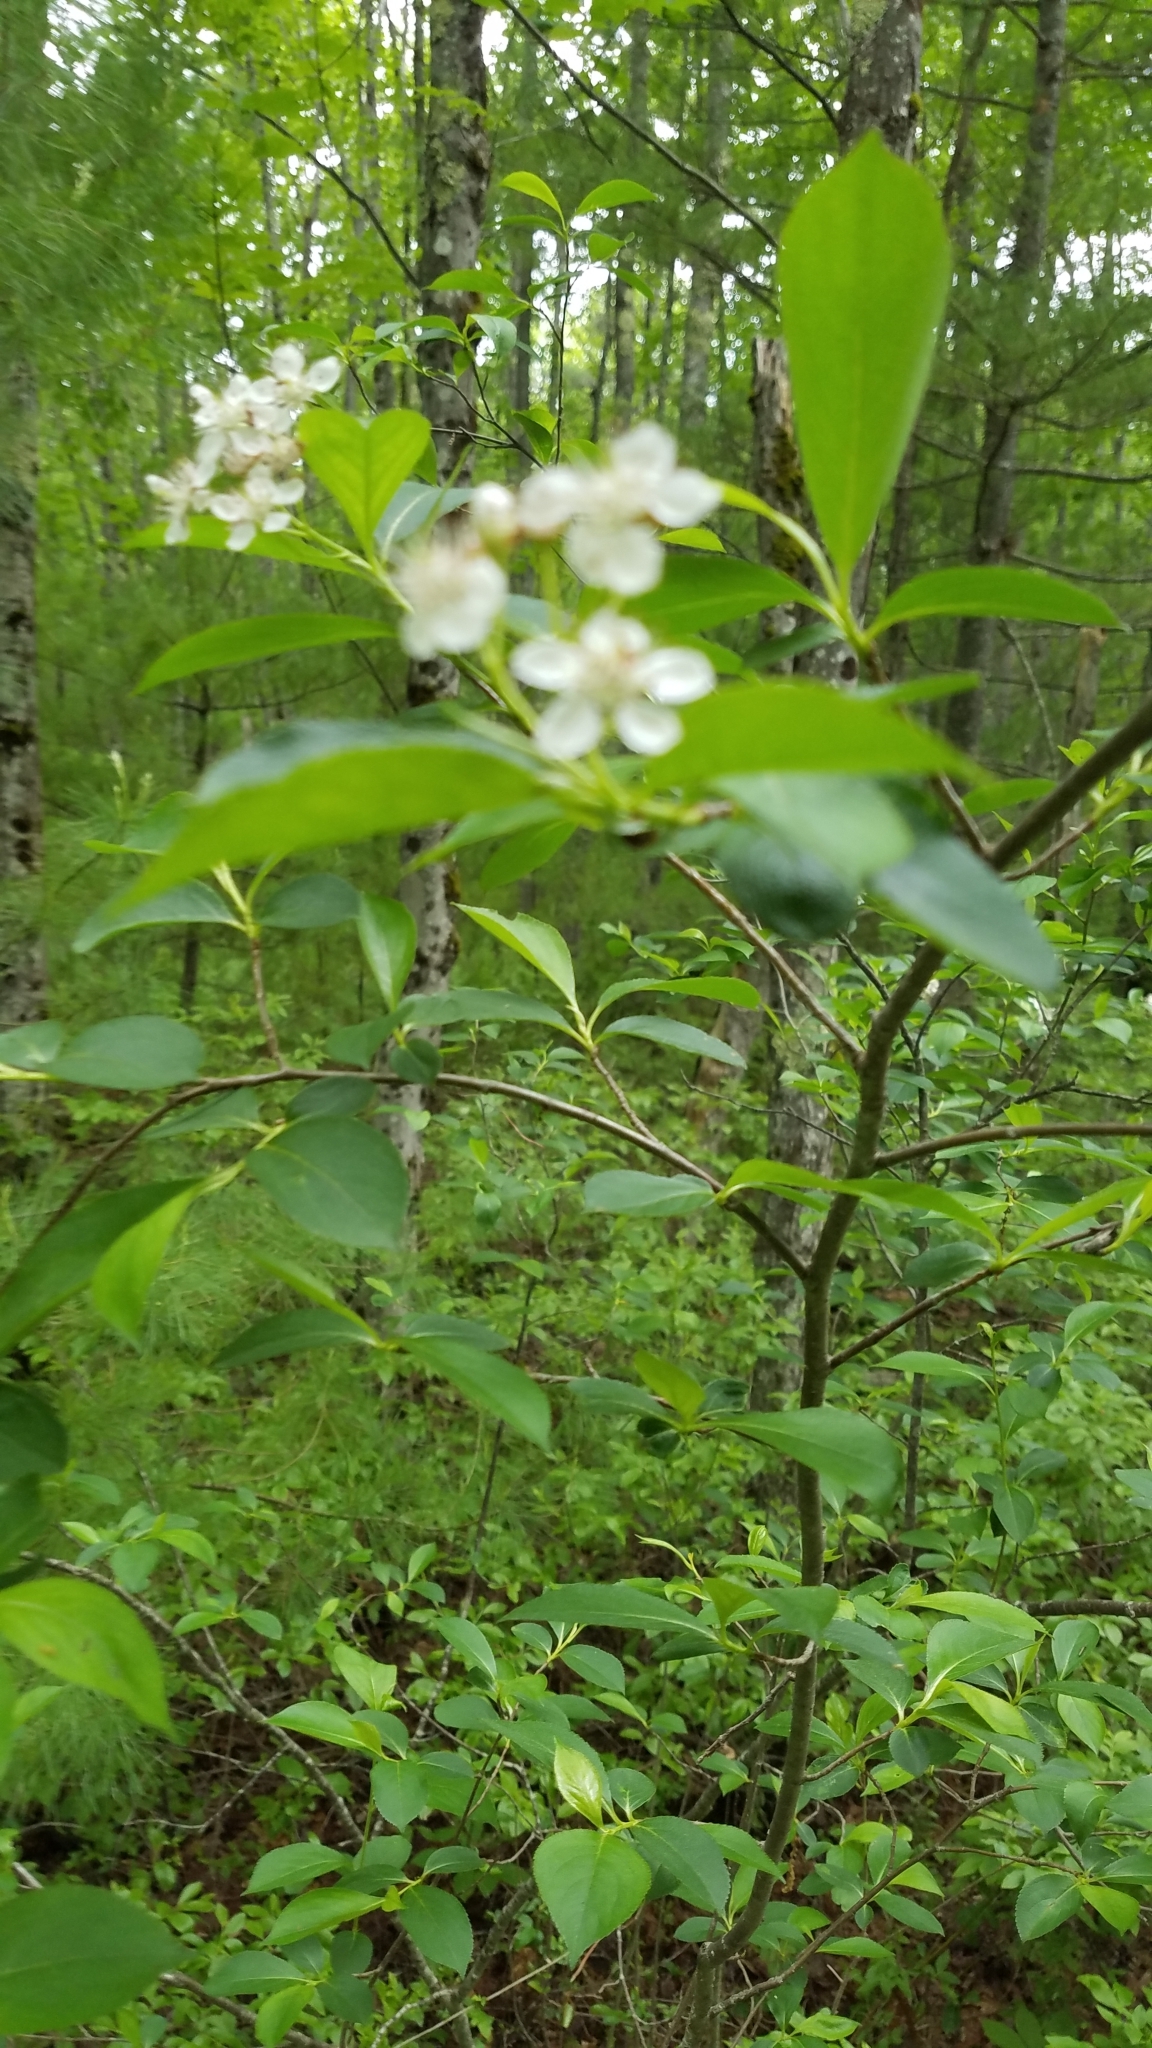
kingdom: Plantae
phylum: Tracheophyta
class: Magnoliopsida
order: Rosales
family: Rosaceae
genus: Aronia
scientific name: Aronia melanocarpa
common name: Black chokeberry
